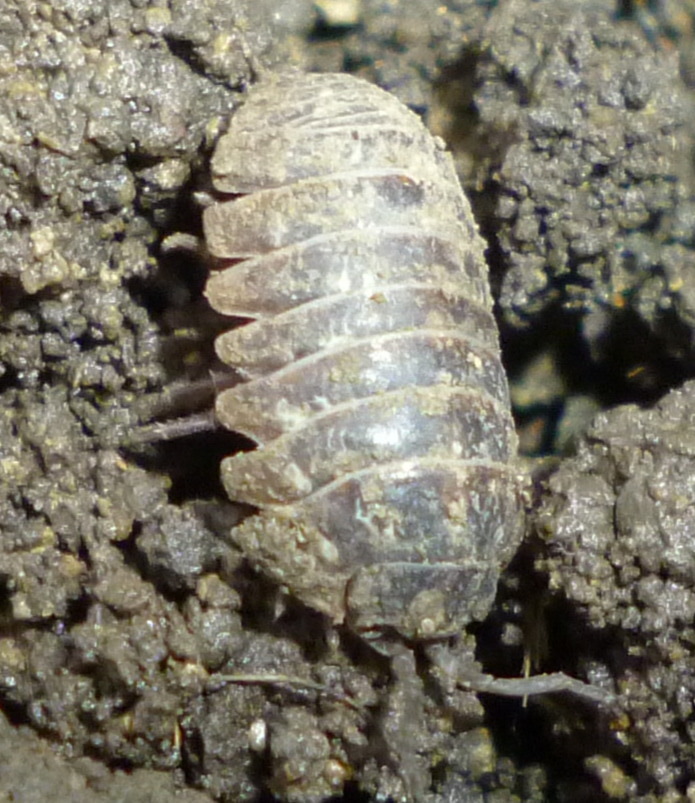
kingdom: Animalia
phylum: Arthropoda
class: Malacostraca
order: Isopoda
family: Armadillidiidae
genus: Armadillidium
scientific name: Armadillidium vulgare
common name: Common pill woodlouse
